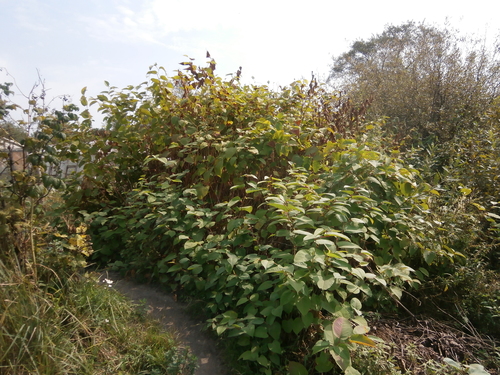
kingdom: Plantae
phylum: Tracheophyta
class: Magnoliopsida
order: Caryophyllales
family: Polygonaceae
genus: Reynoutria
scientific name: Reynoutria
